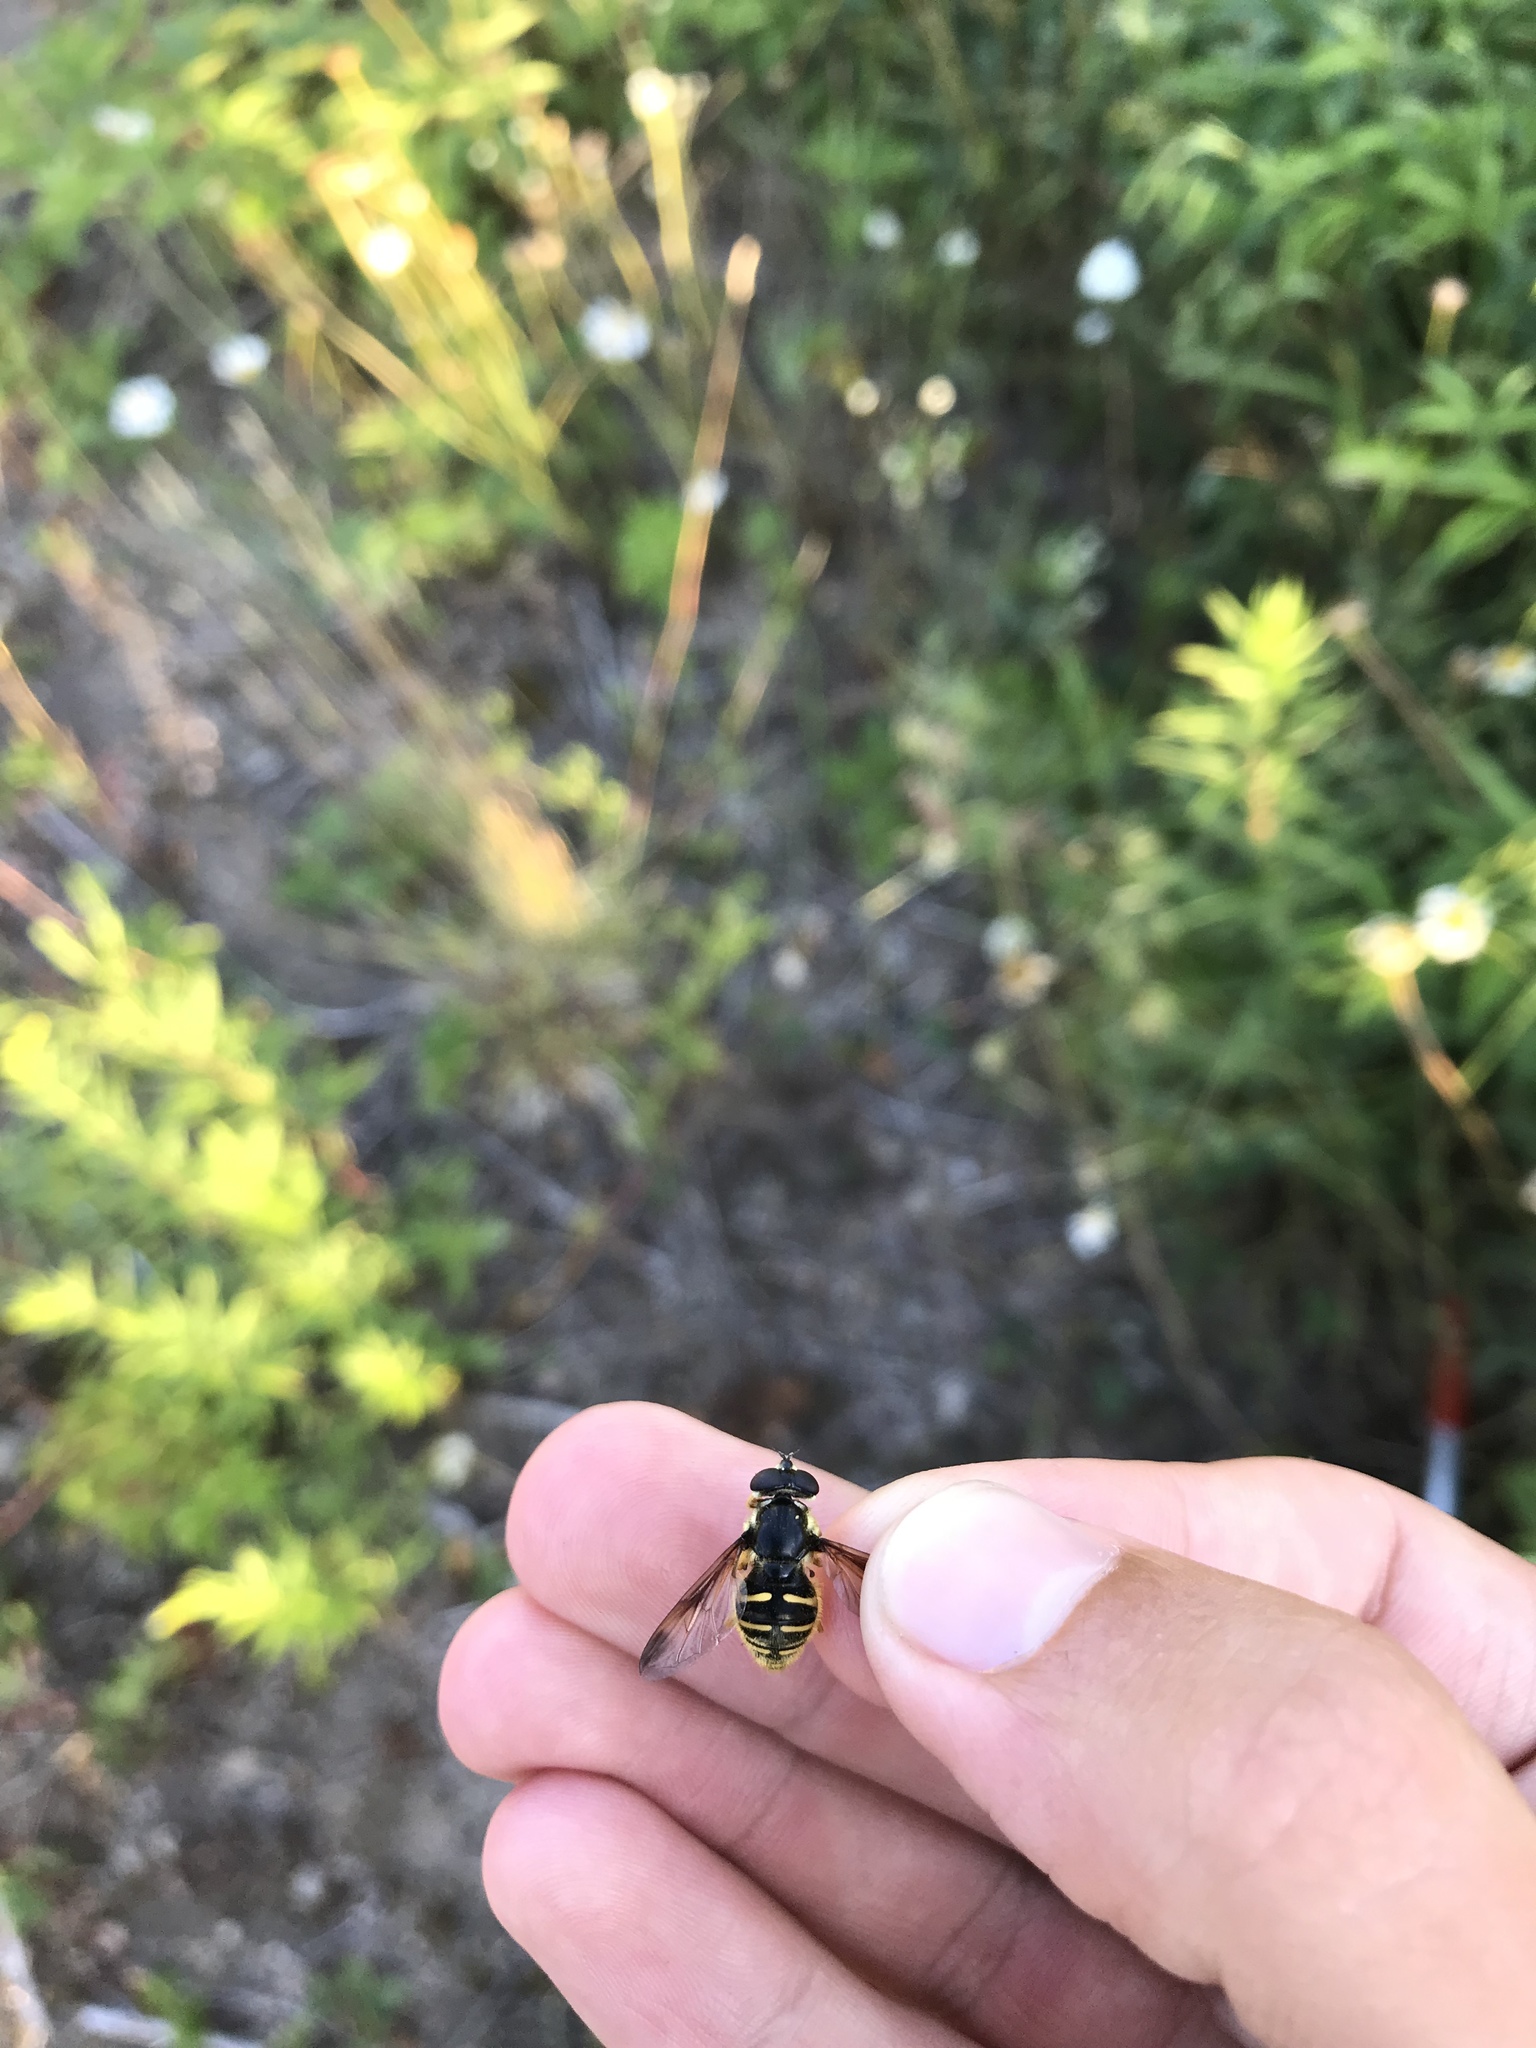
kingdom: Animalia
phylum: Arthropoda
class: Insecta
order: Diptera
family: Syrphidae
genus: Sericomyia
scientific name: Sericomyia chrysotoxoides
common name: Oblique-banded pond fly
